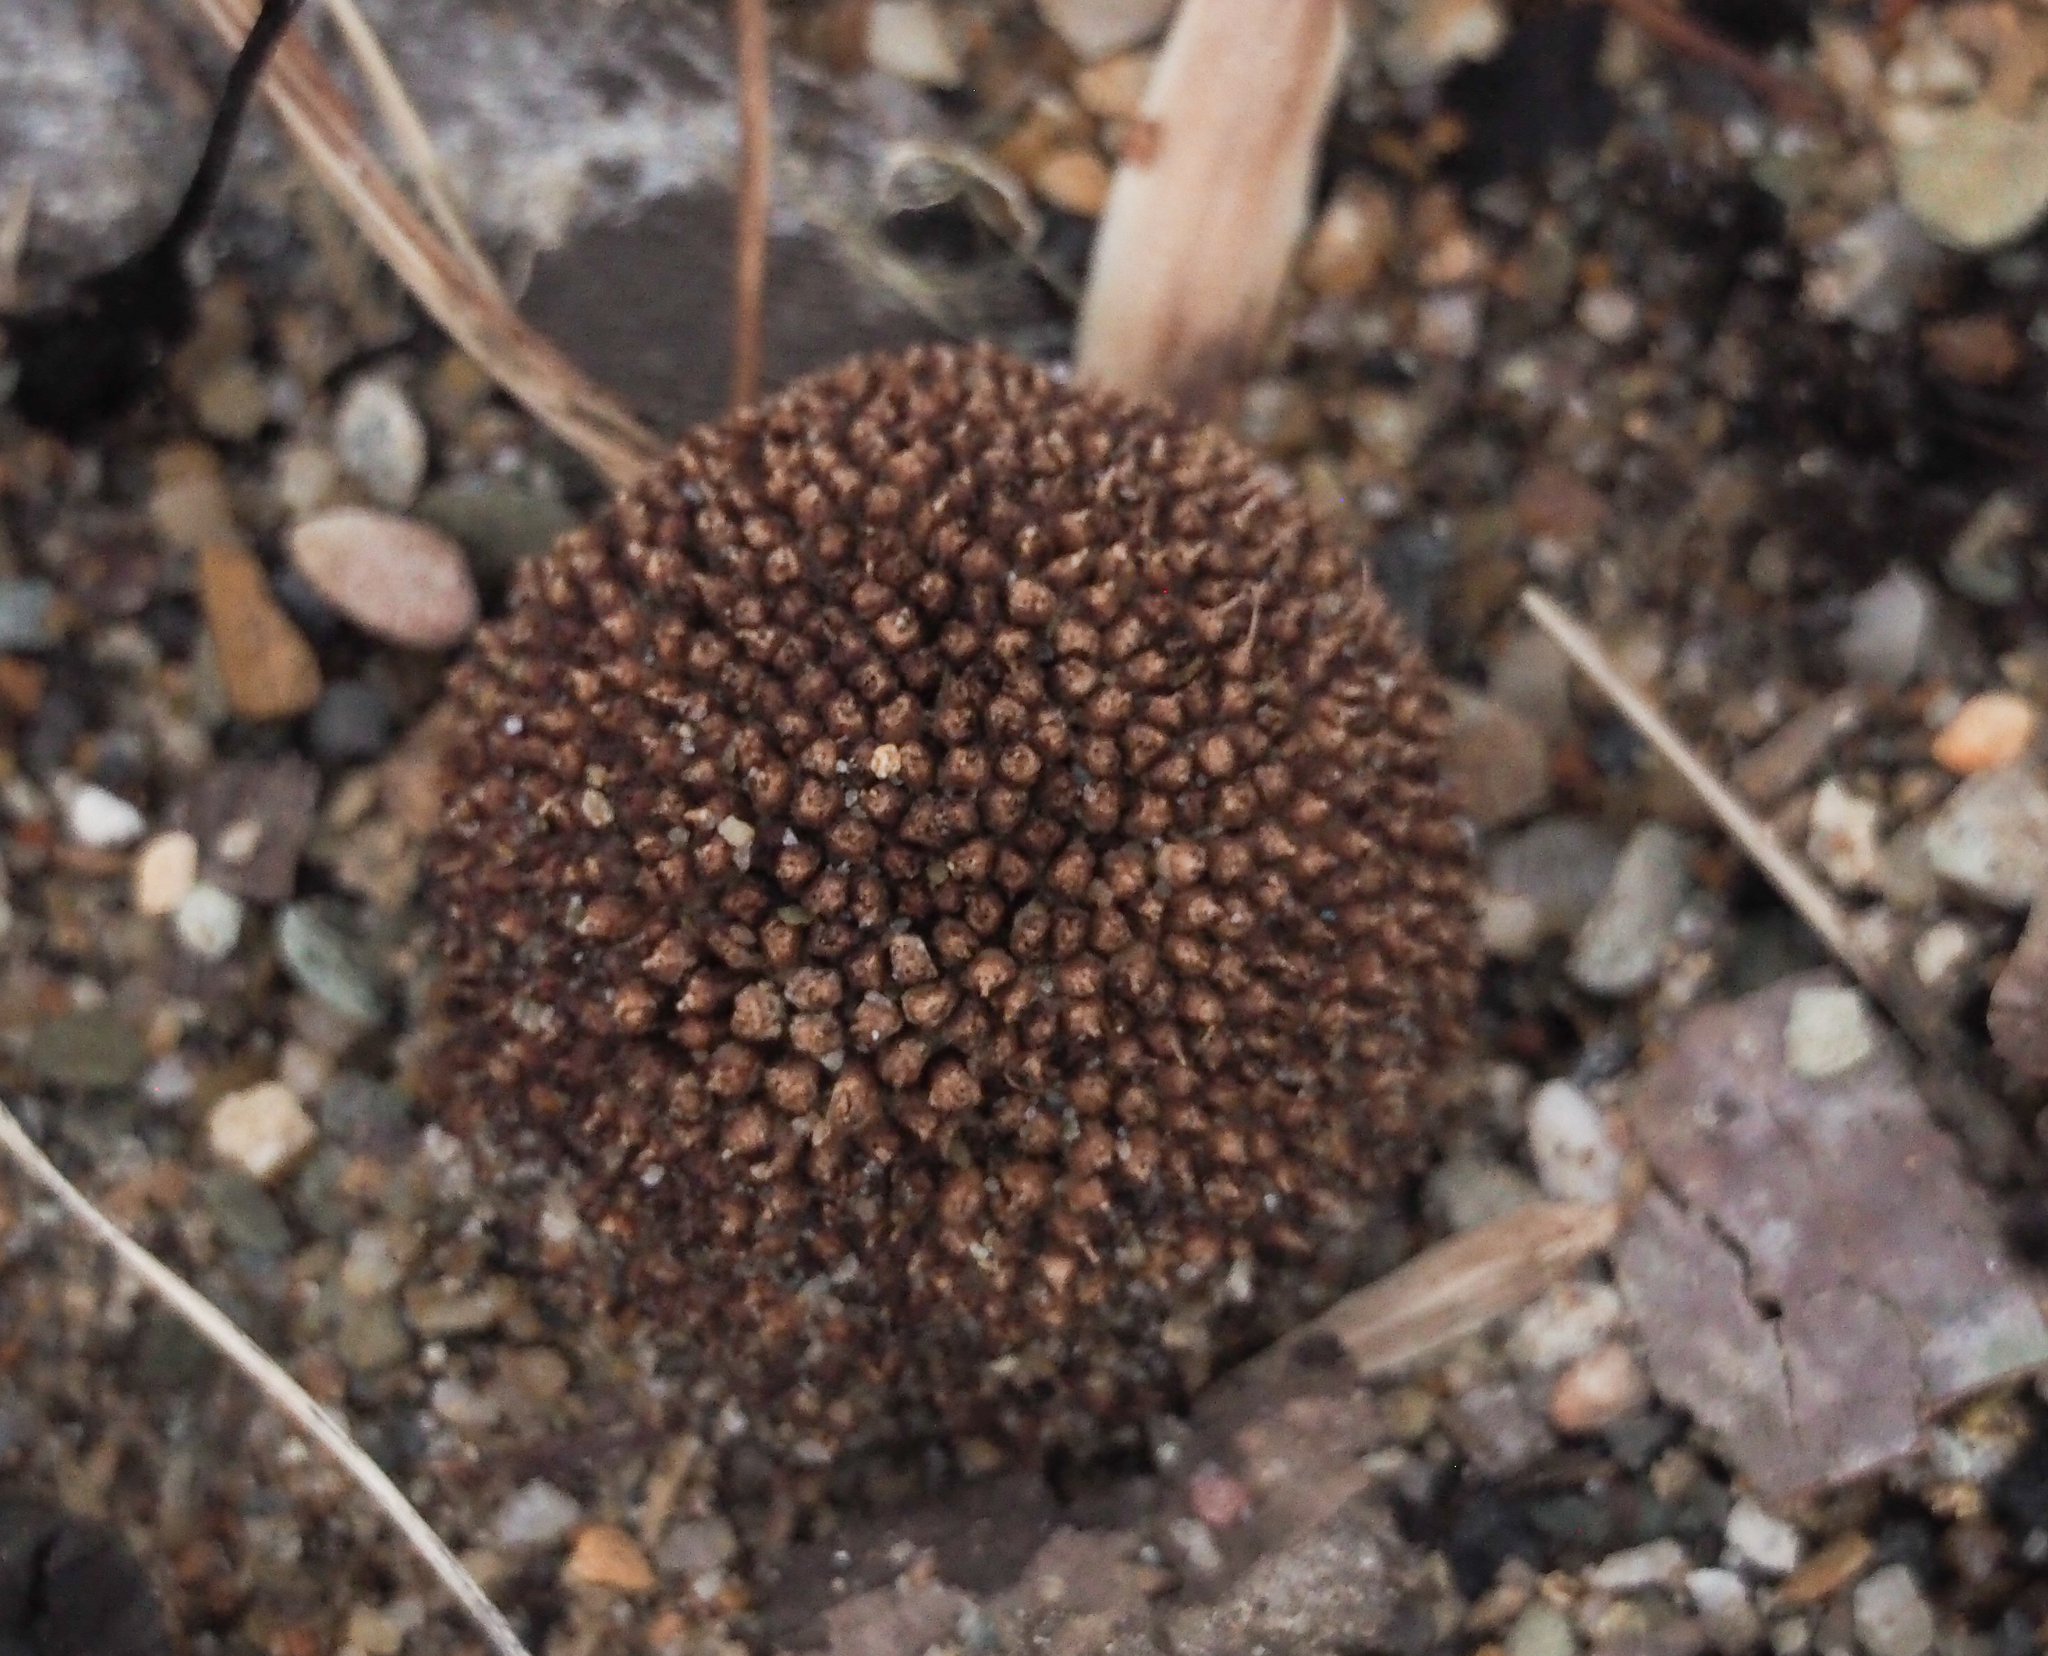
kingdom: Plantae
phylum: Tracheophyta
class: Magnoliopsida
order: Proteales
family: Platanaceae
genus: Platanus
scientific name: Platanus occidentalis
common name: American sycamore
